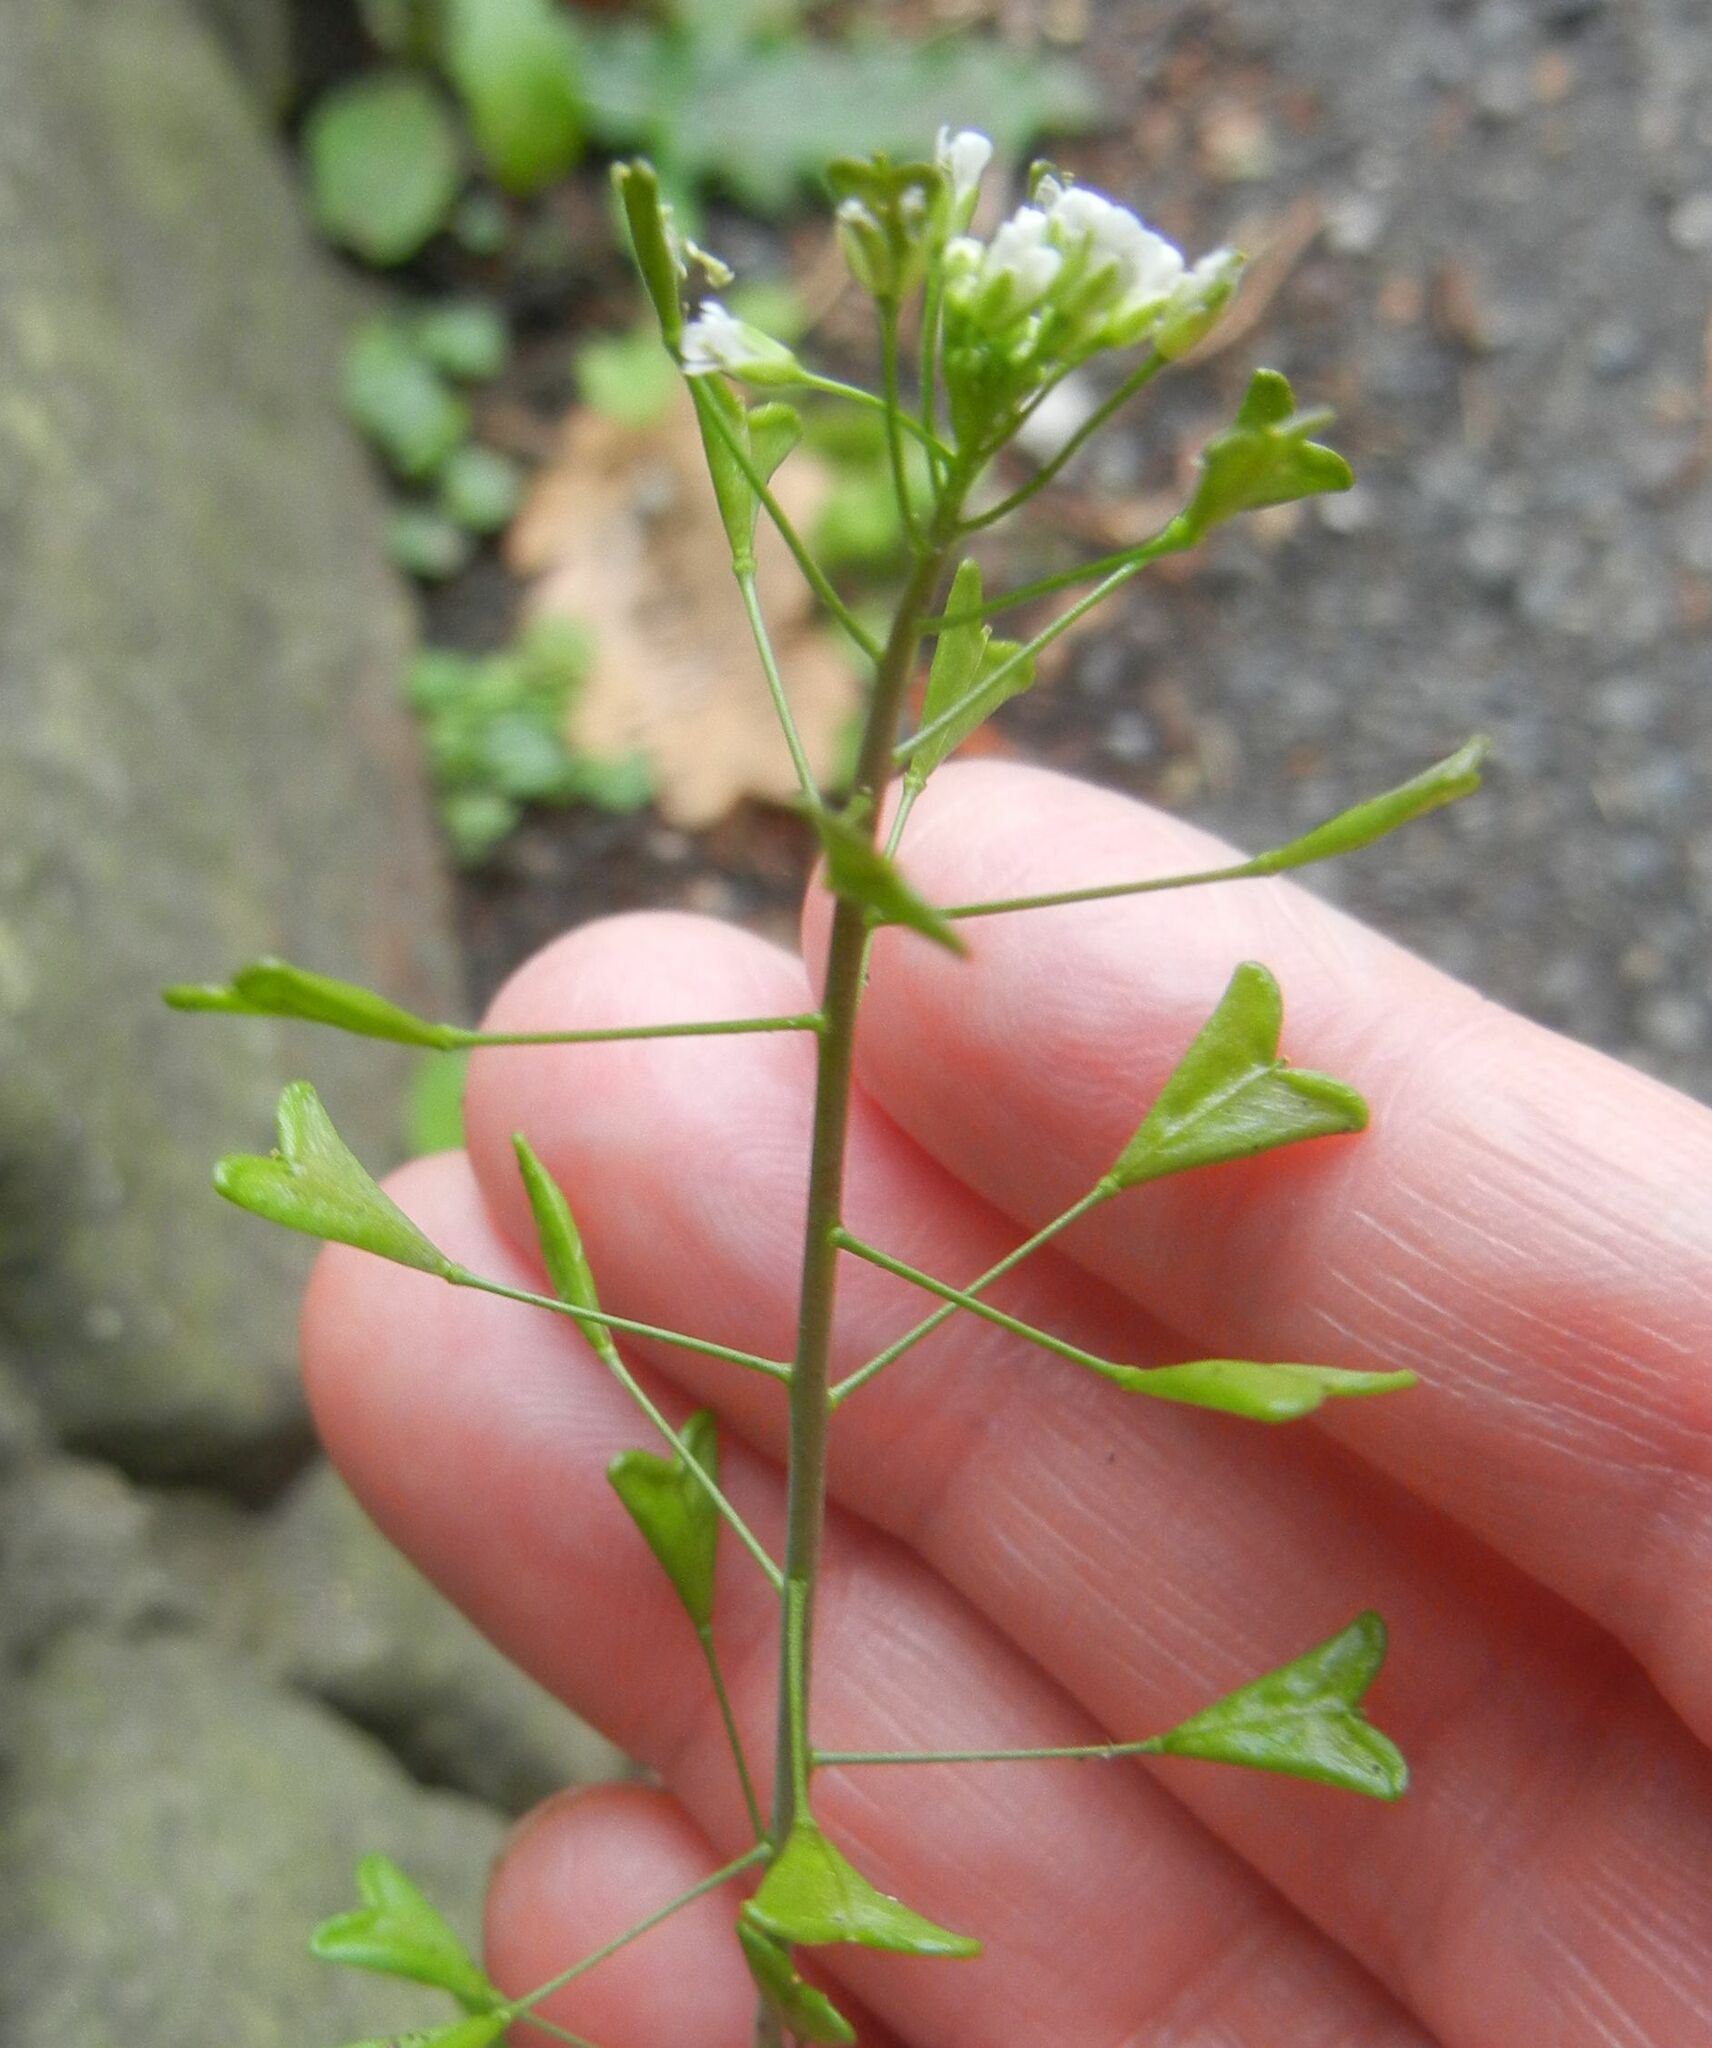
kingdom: Plantae
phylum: Tracheophyta
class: Magnoliopsida
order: Brassicales
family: Brassicaceae
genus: Capsella
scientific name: Capsella bursa-pastoris
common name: Shepherd's purse
